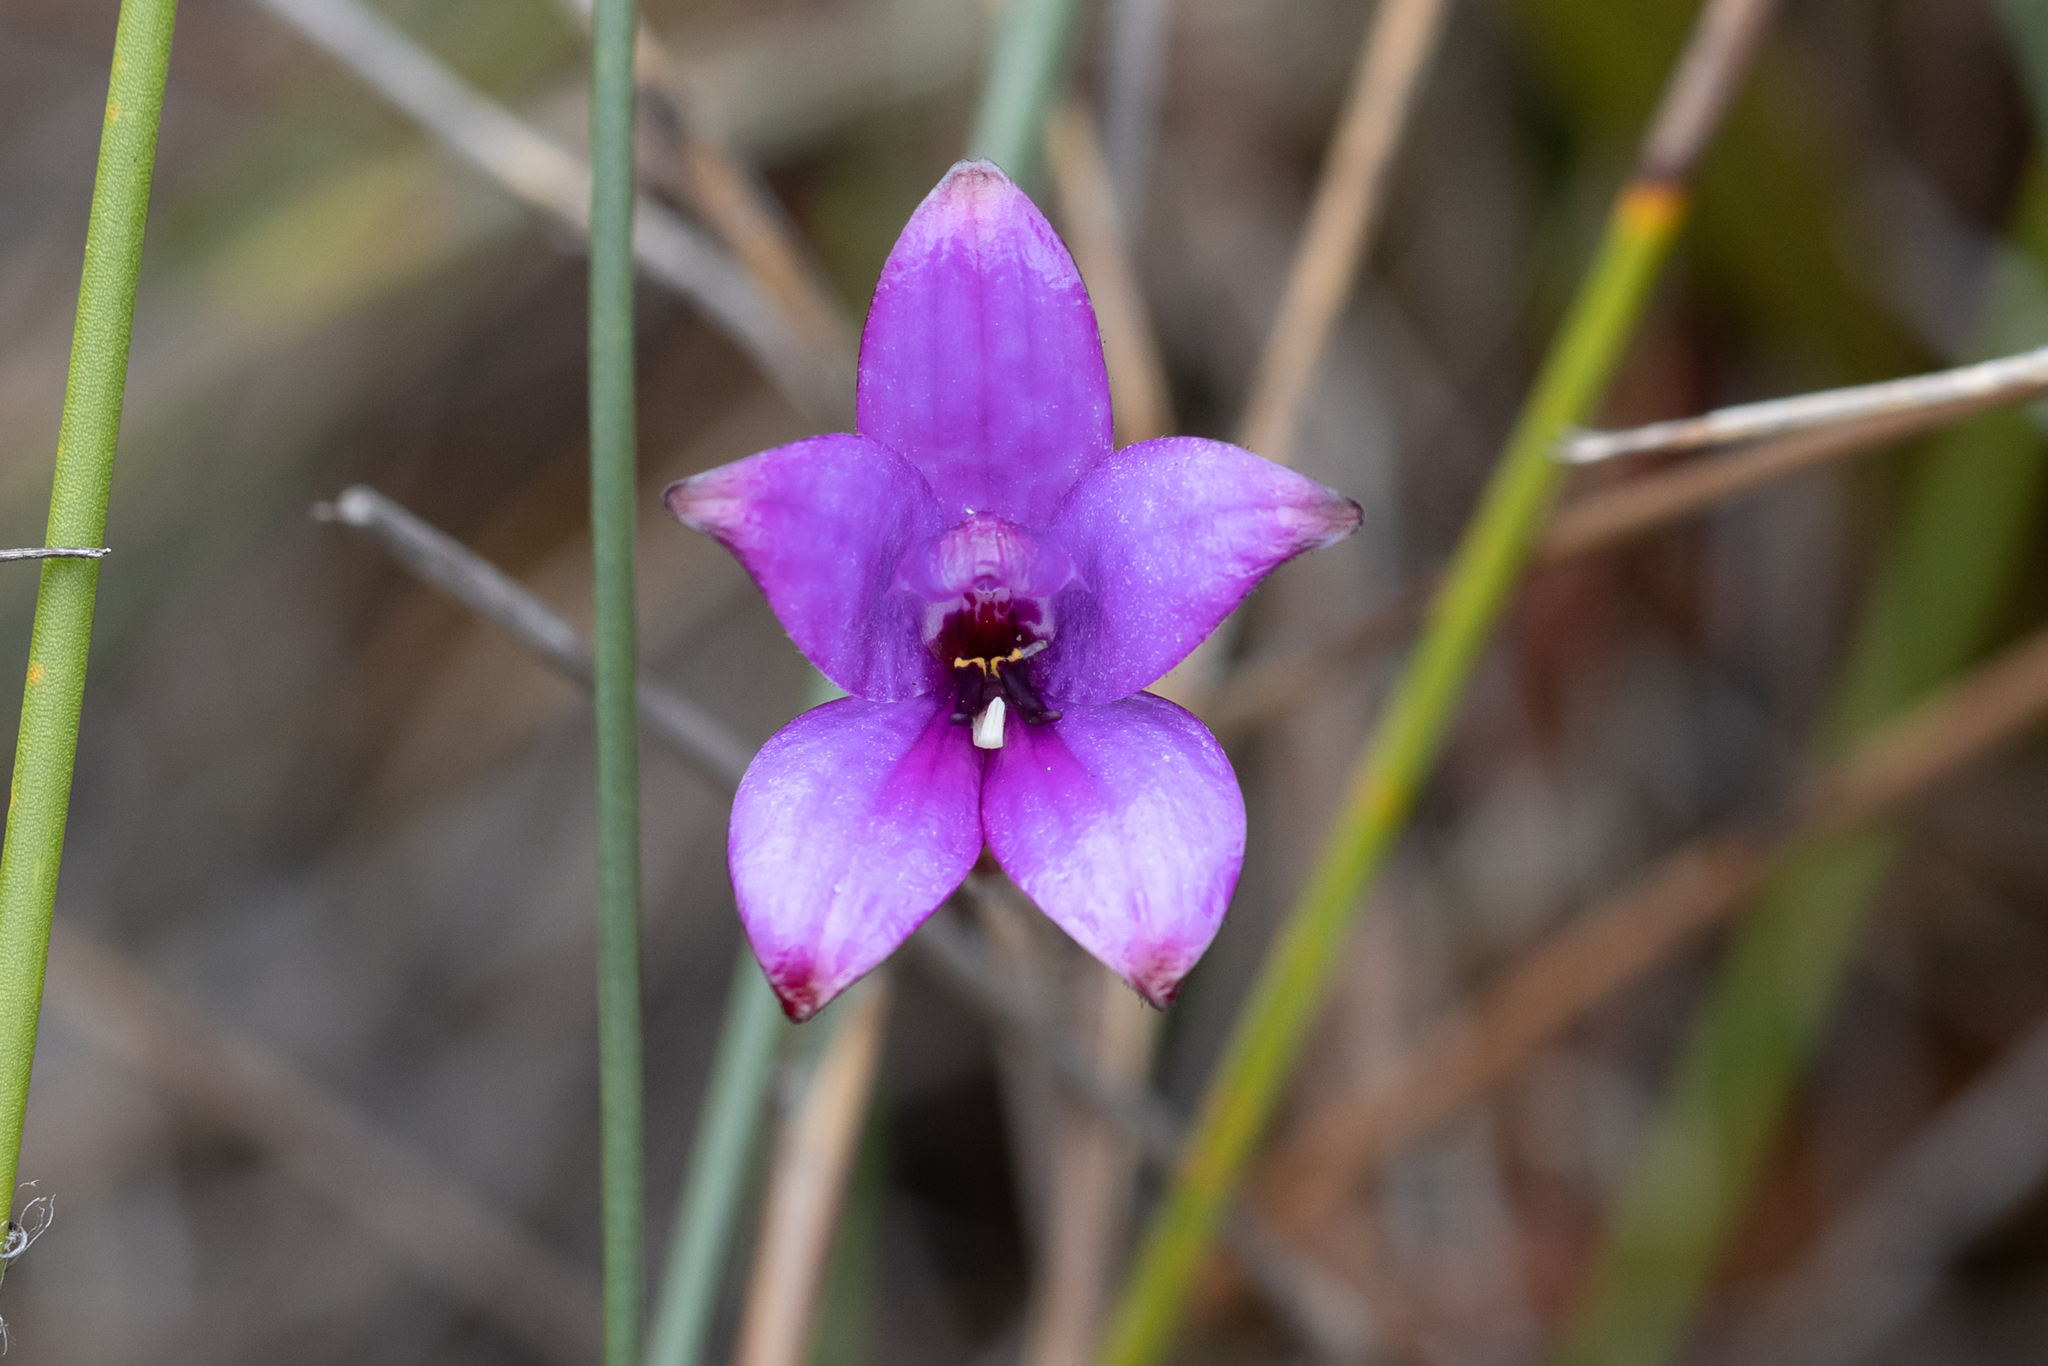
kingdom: Plantae
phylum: Tracheophyta
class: Liliopsida
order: Asparagales
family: Orchidaceae
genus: Caladenia
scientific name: Caladenia brunonis
